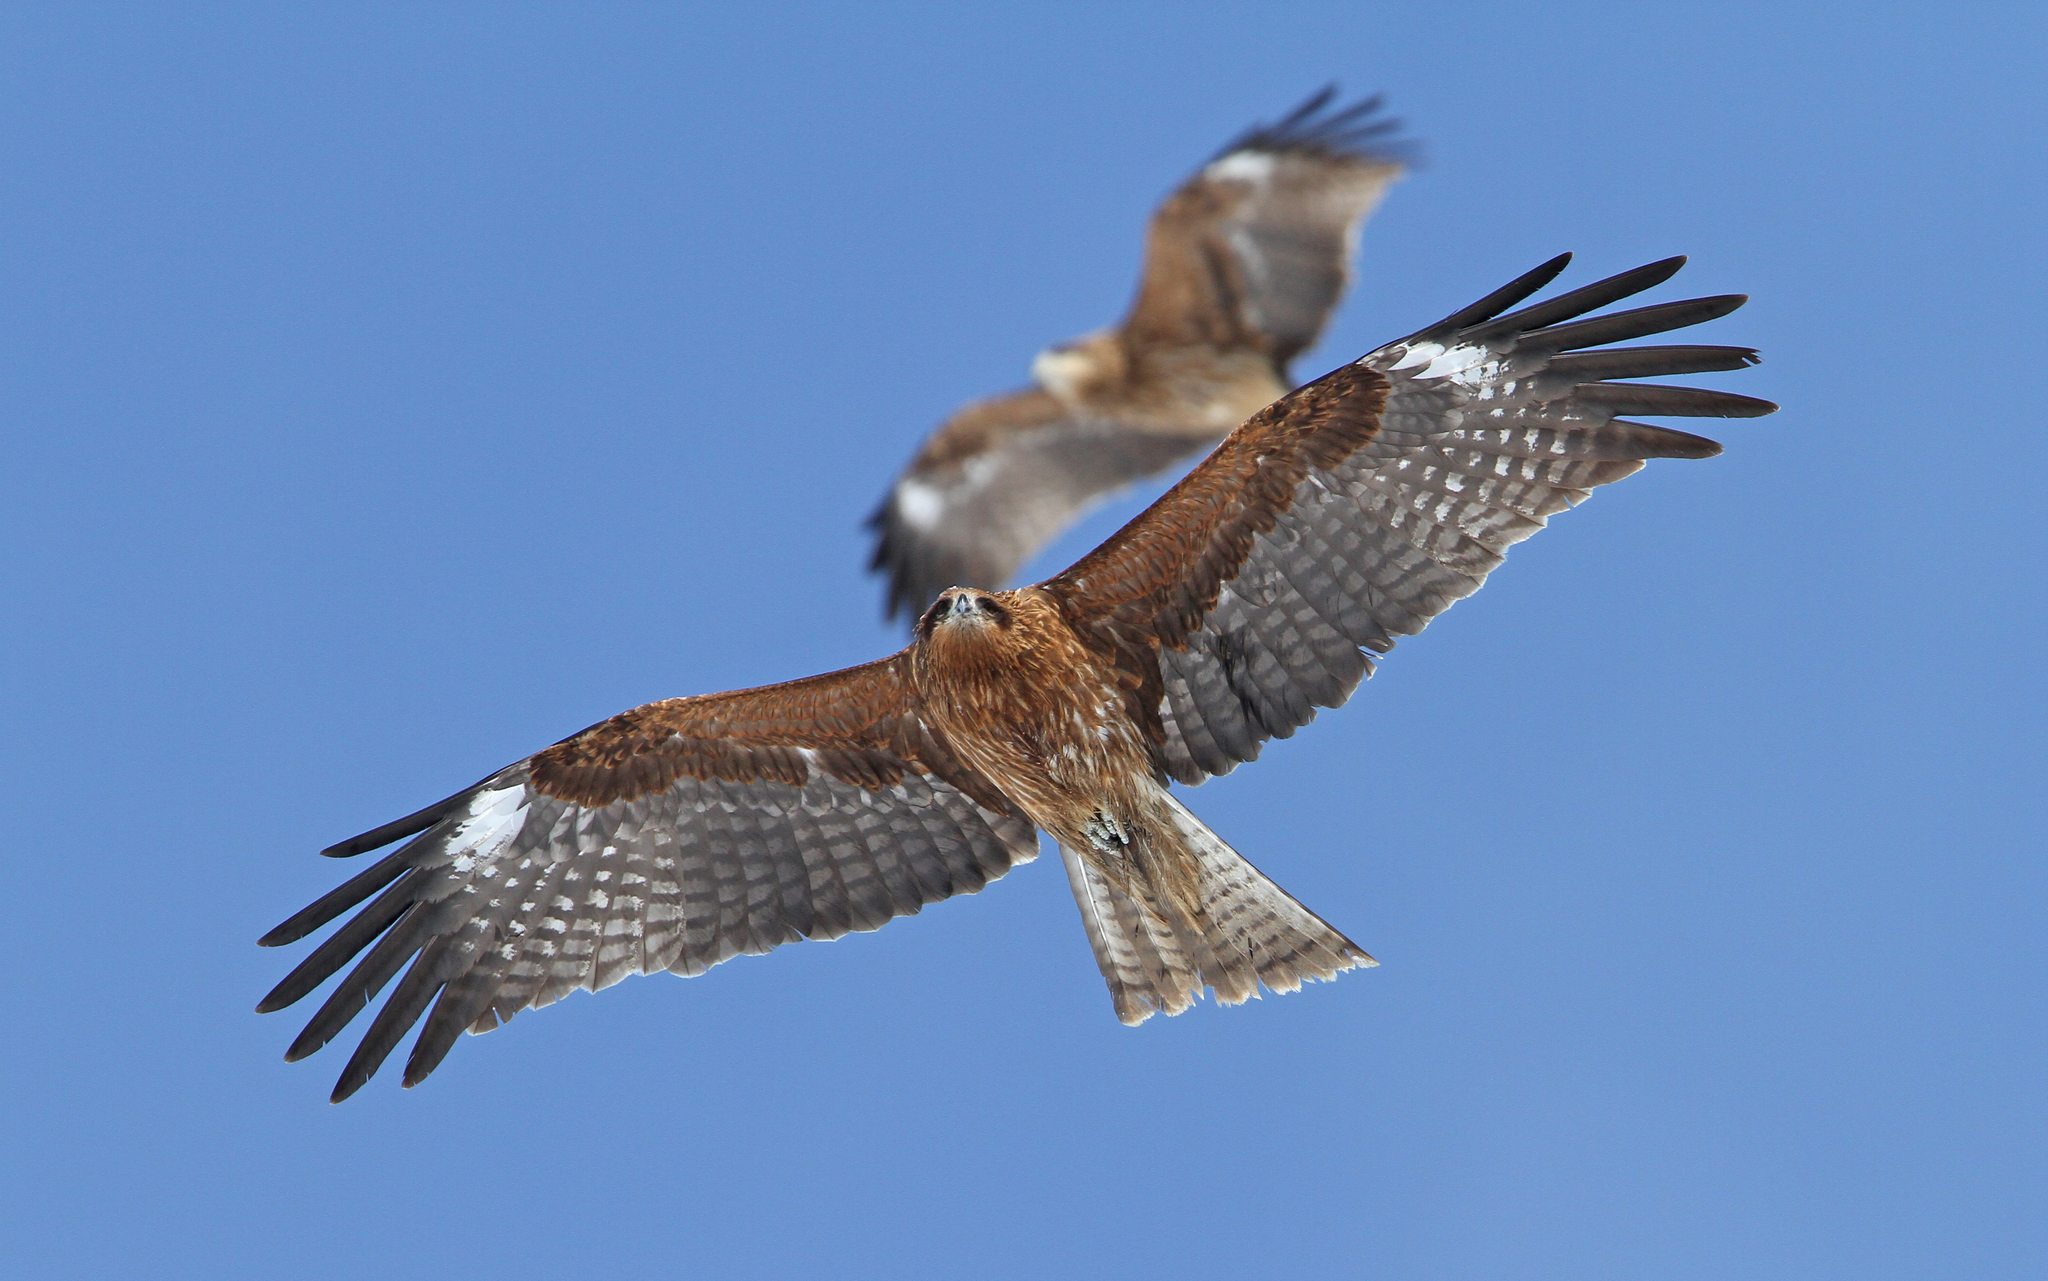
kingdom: Animalia
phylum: Chordata
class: Aves
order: Accipitriformes
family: Accipitridae
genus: Milvus
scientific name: Milvus migrans
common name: Black kite
